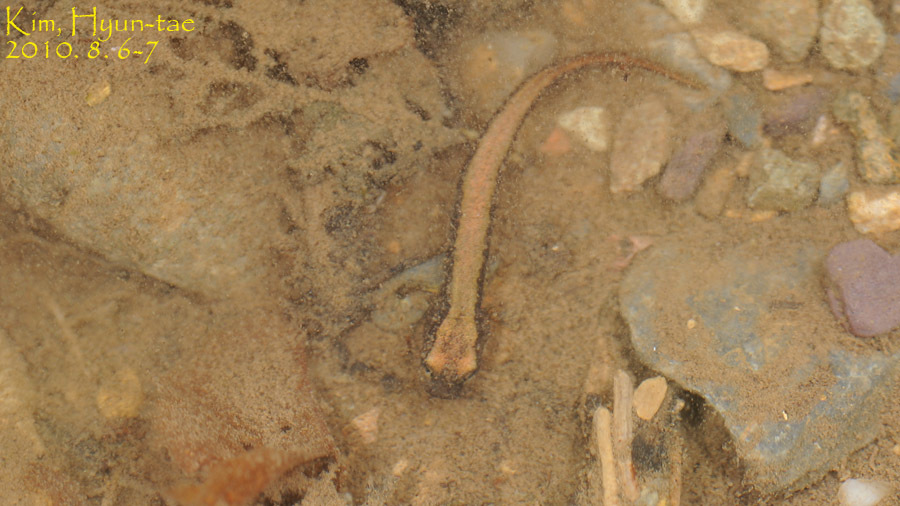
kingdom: Animalia
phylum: Chordata
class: Amphibia
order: Caudata
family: Hynobiidae
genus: Onychodactylus
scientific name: Onychodactylus koreanus
